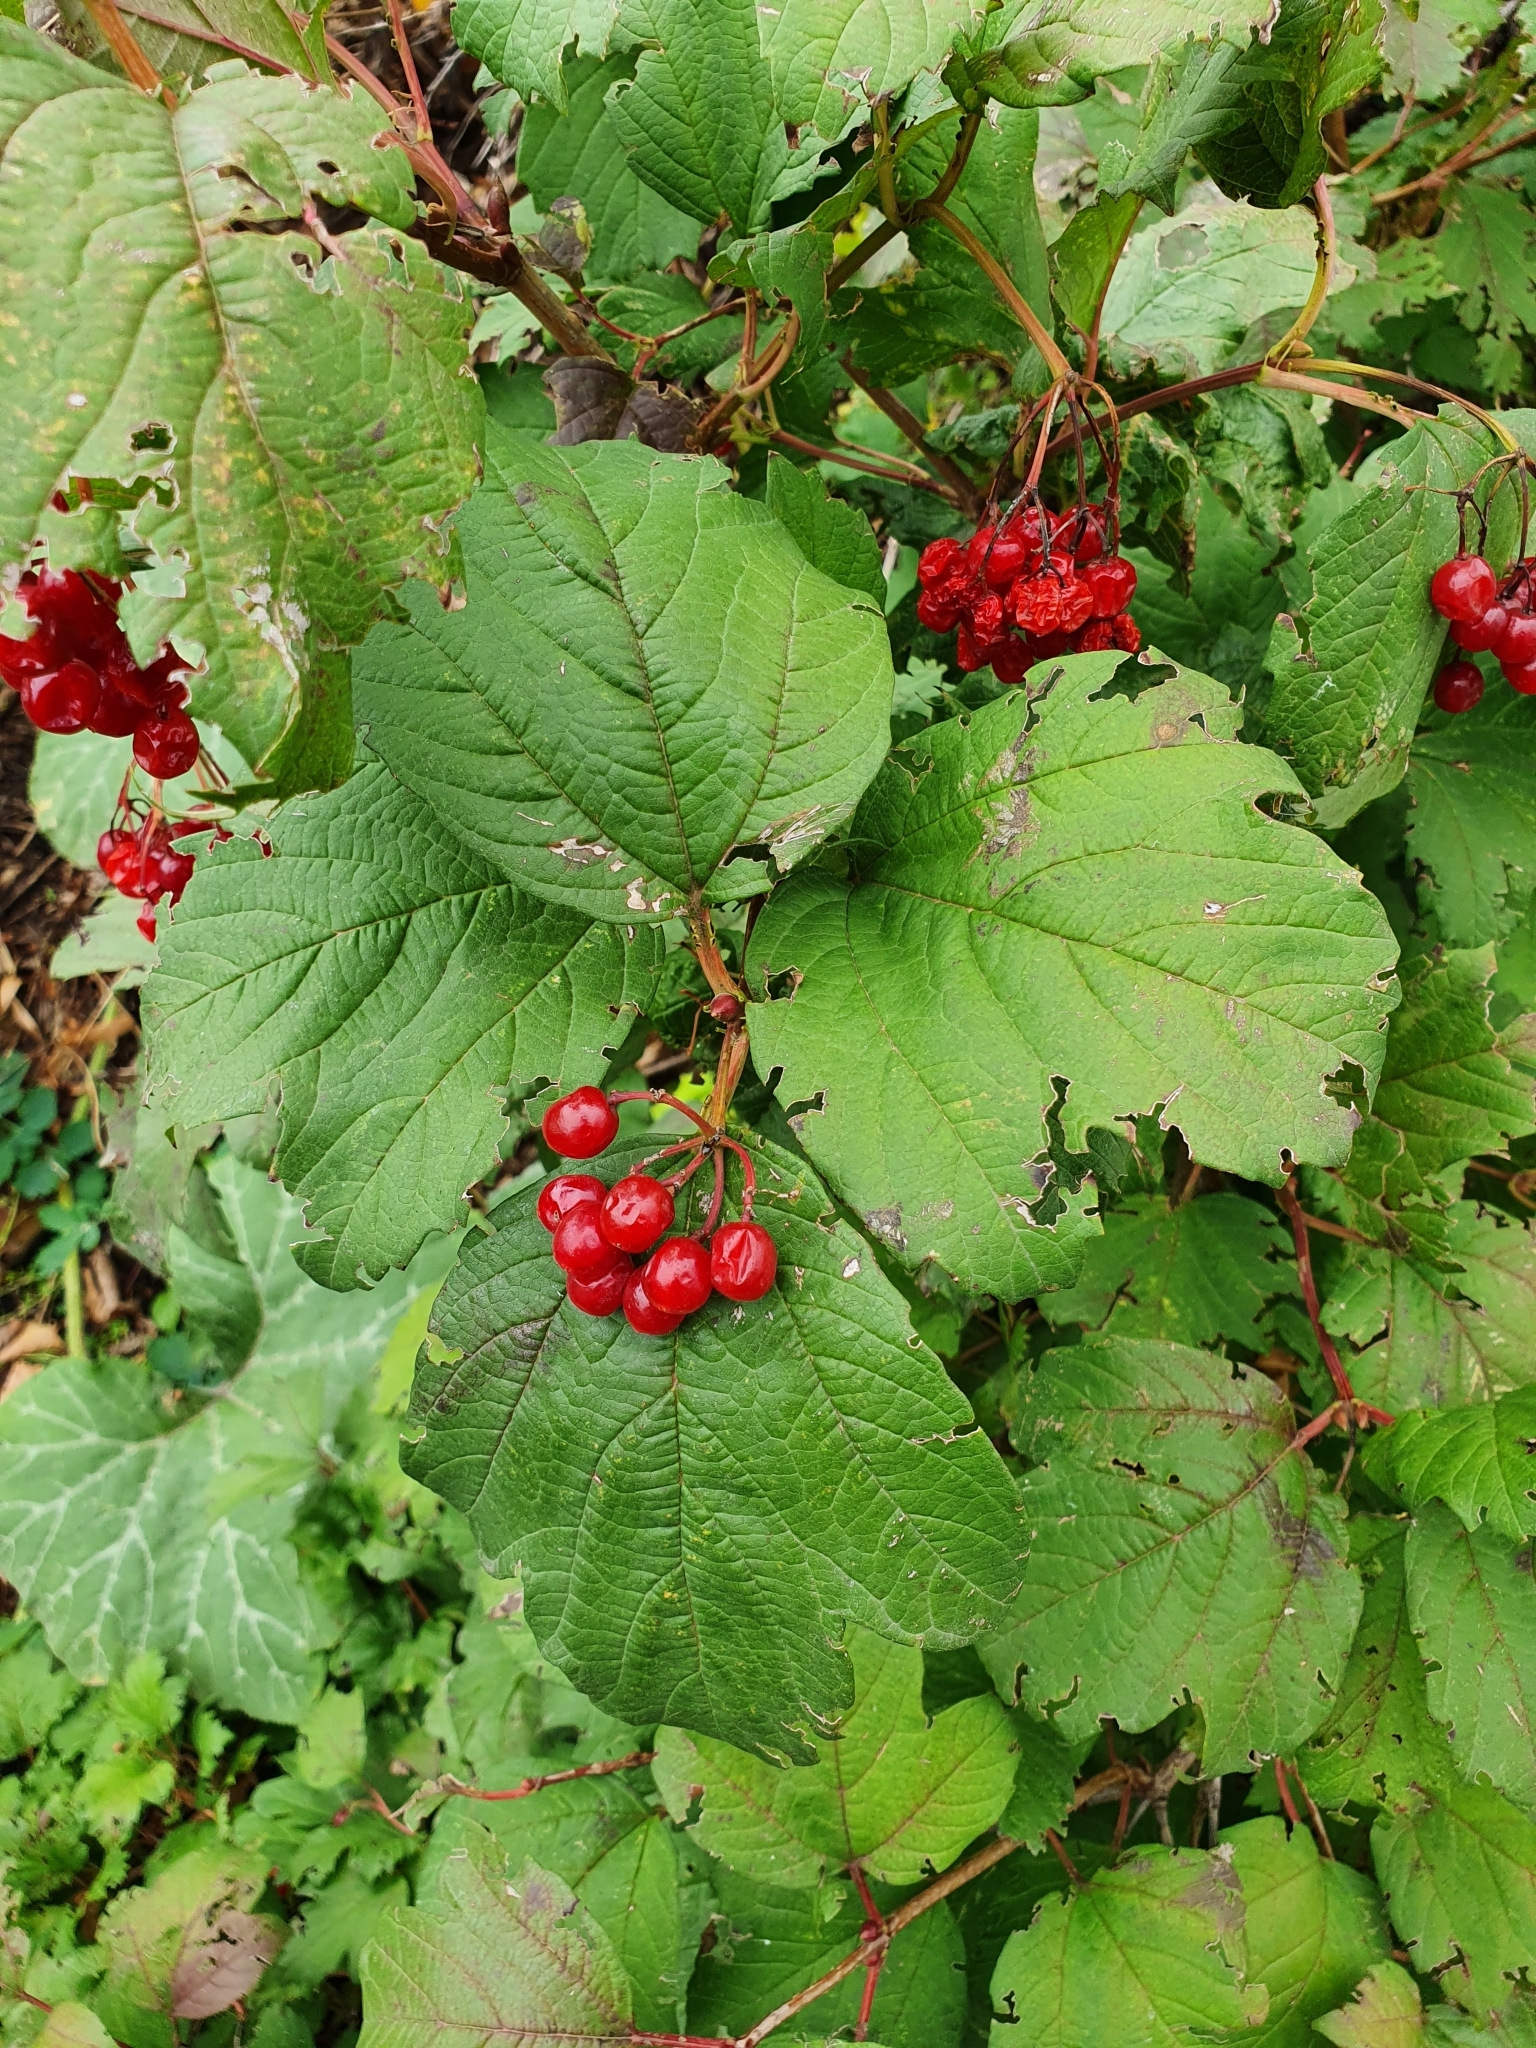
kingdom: Plantae
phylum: Tracheophyta
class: Magnoliopsida
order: Dipsacales
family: Viburnaceae
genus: Viburnum
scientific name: Viburnum opulus
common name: Guelder-rose
